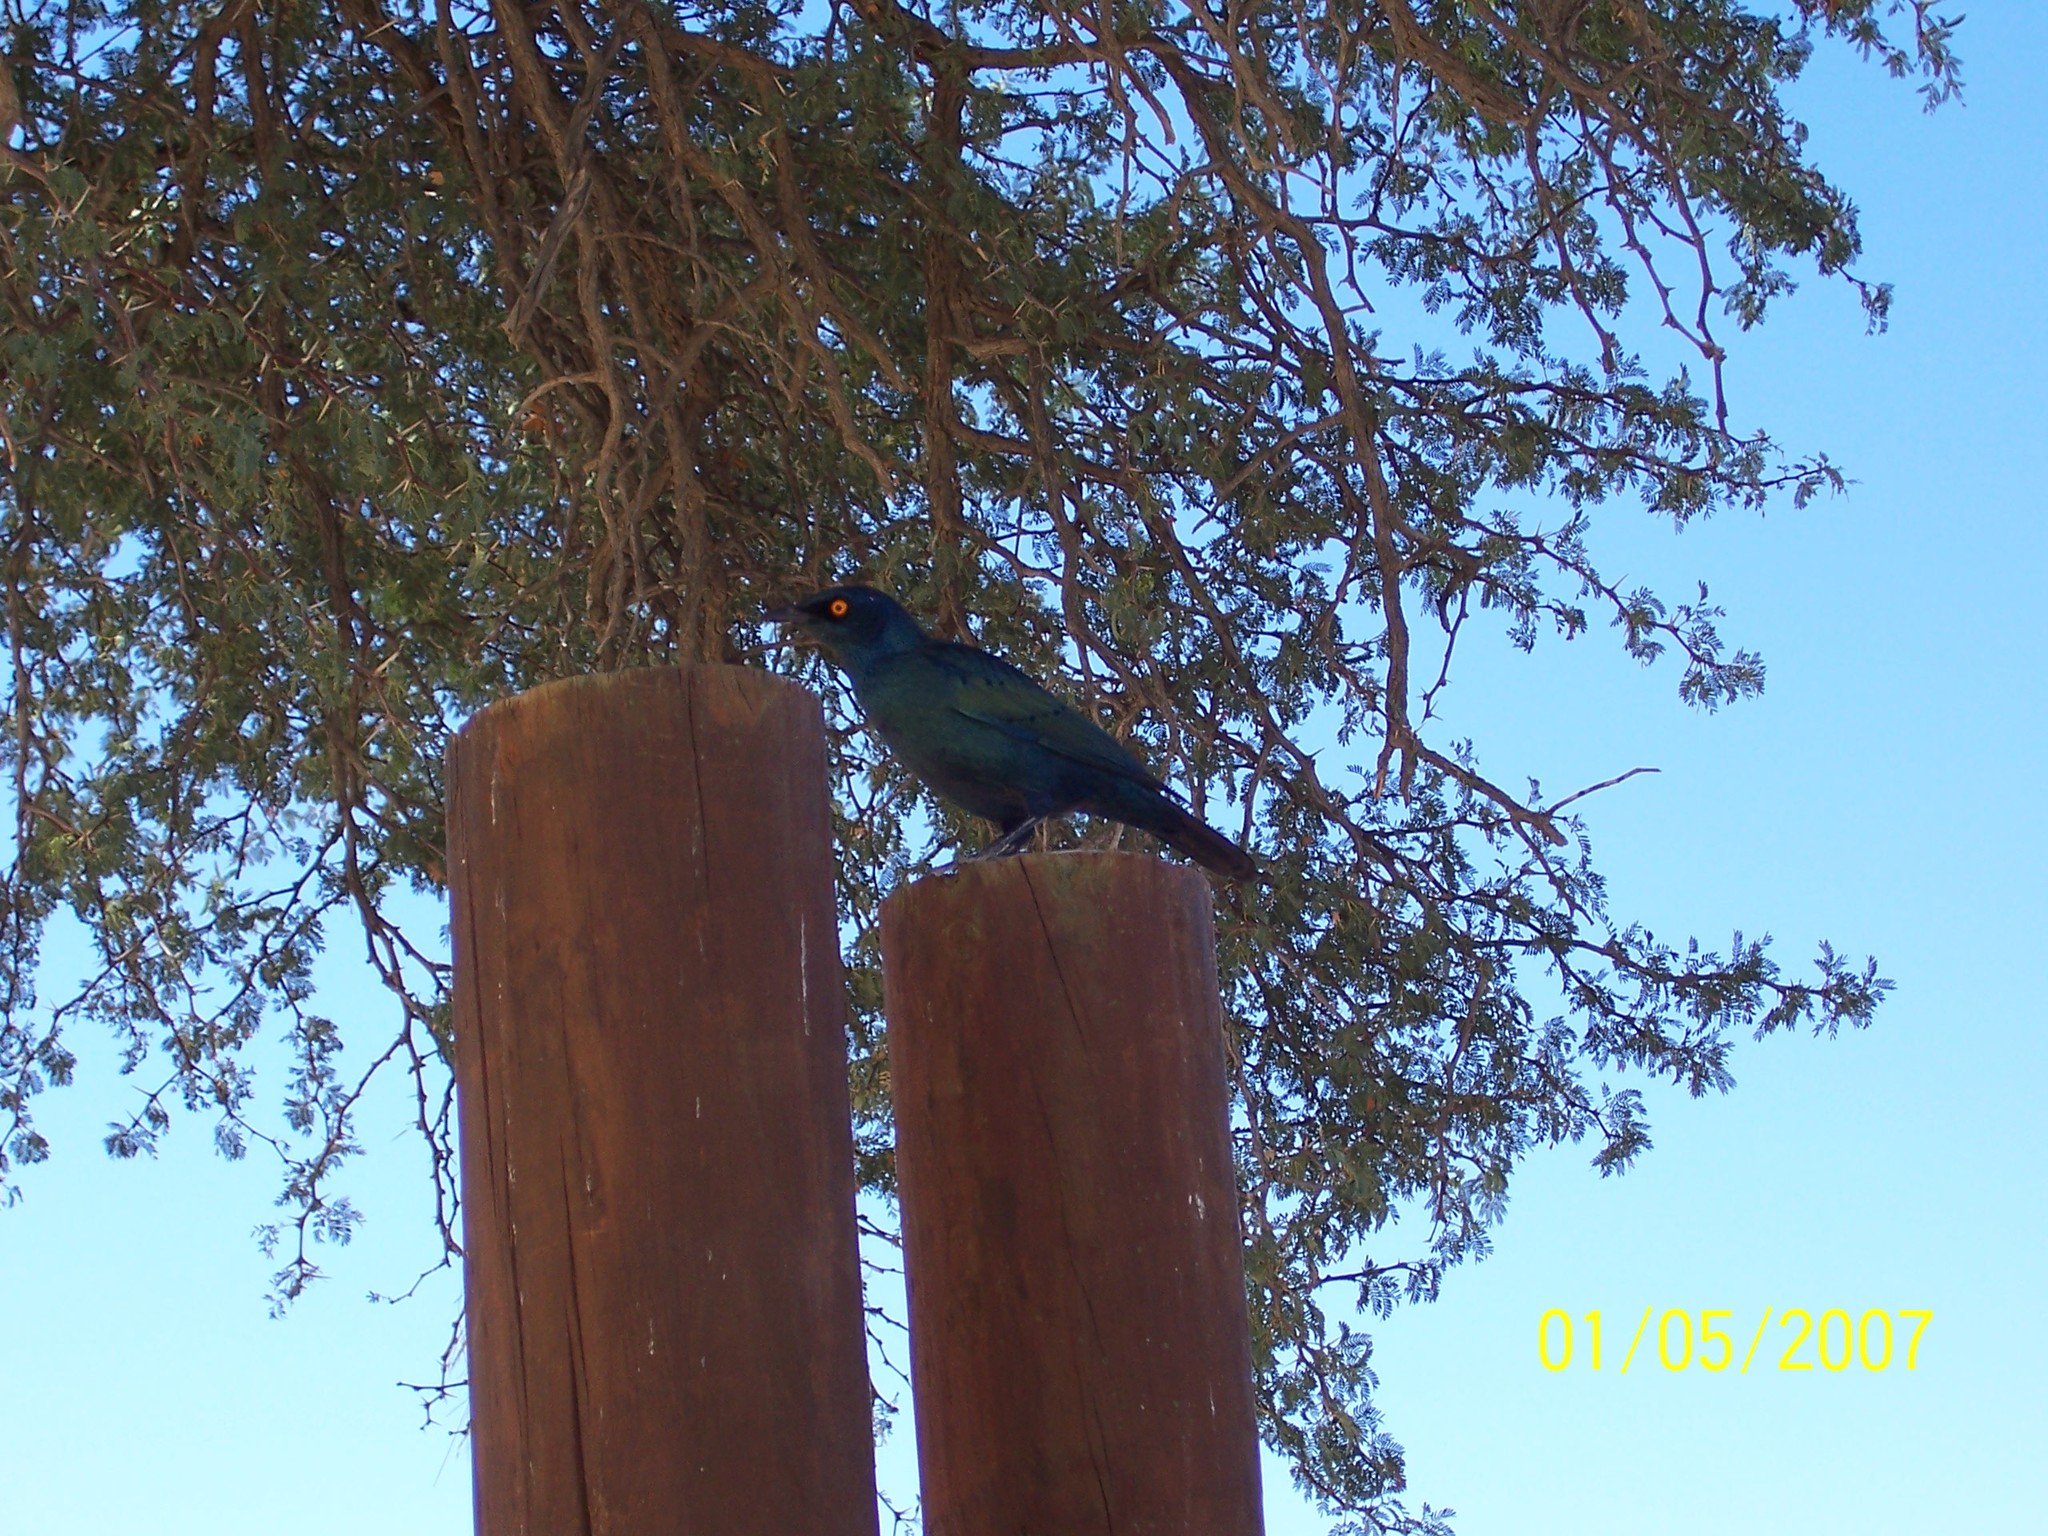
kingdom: Animalia
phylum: Chordata
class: Aves
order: Passeriformes
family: Sturnidae
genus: Lamprotornis
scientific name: Lamprotornis nitens
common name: Cape starling
